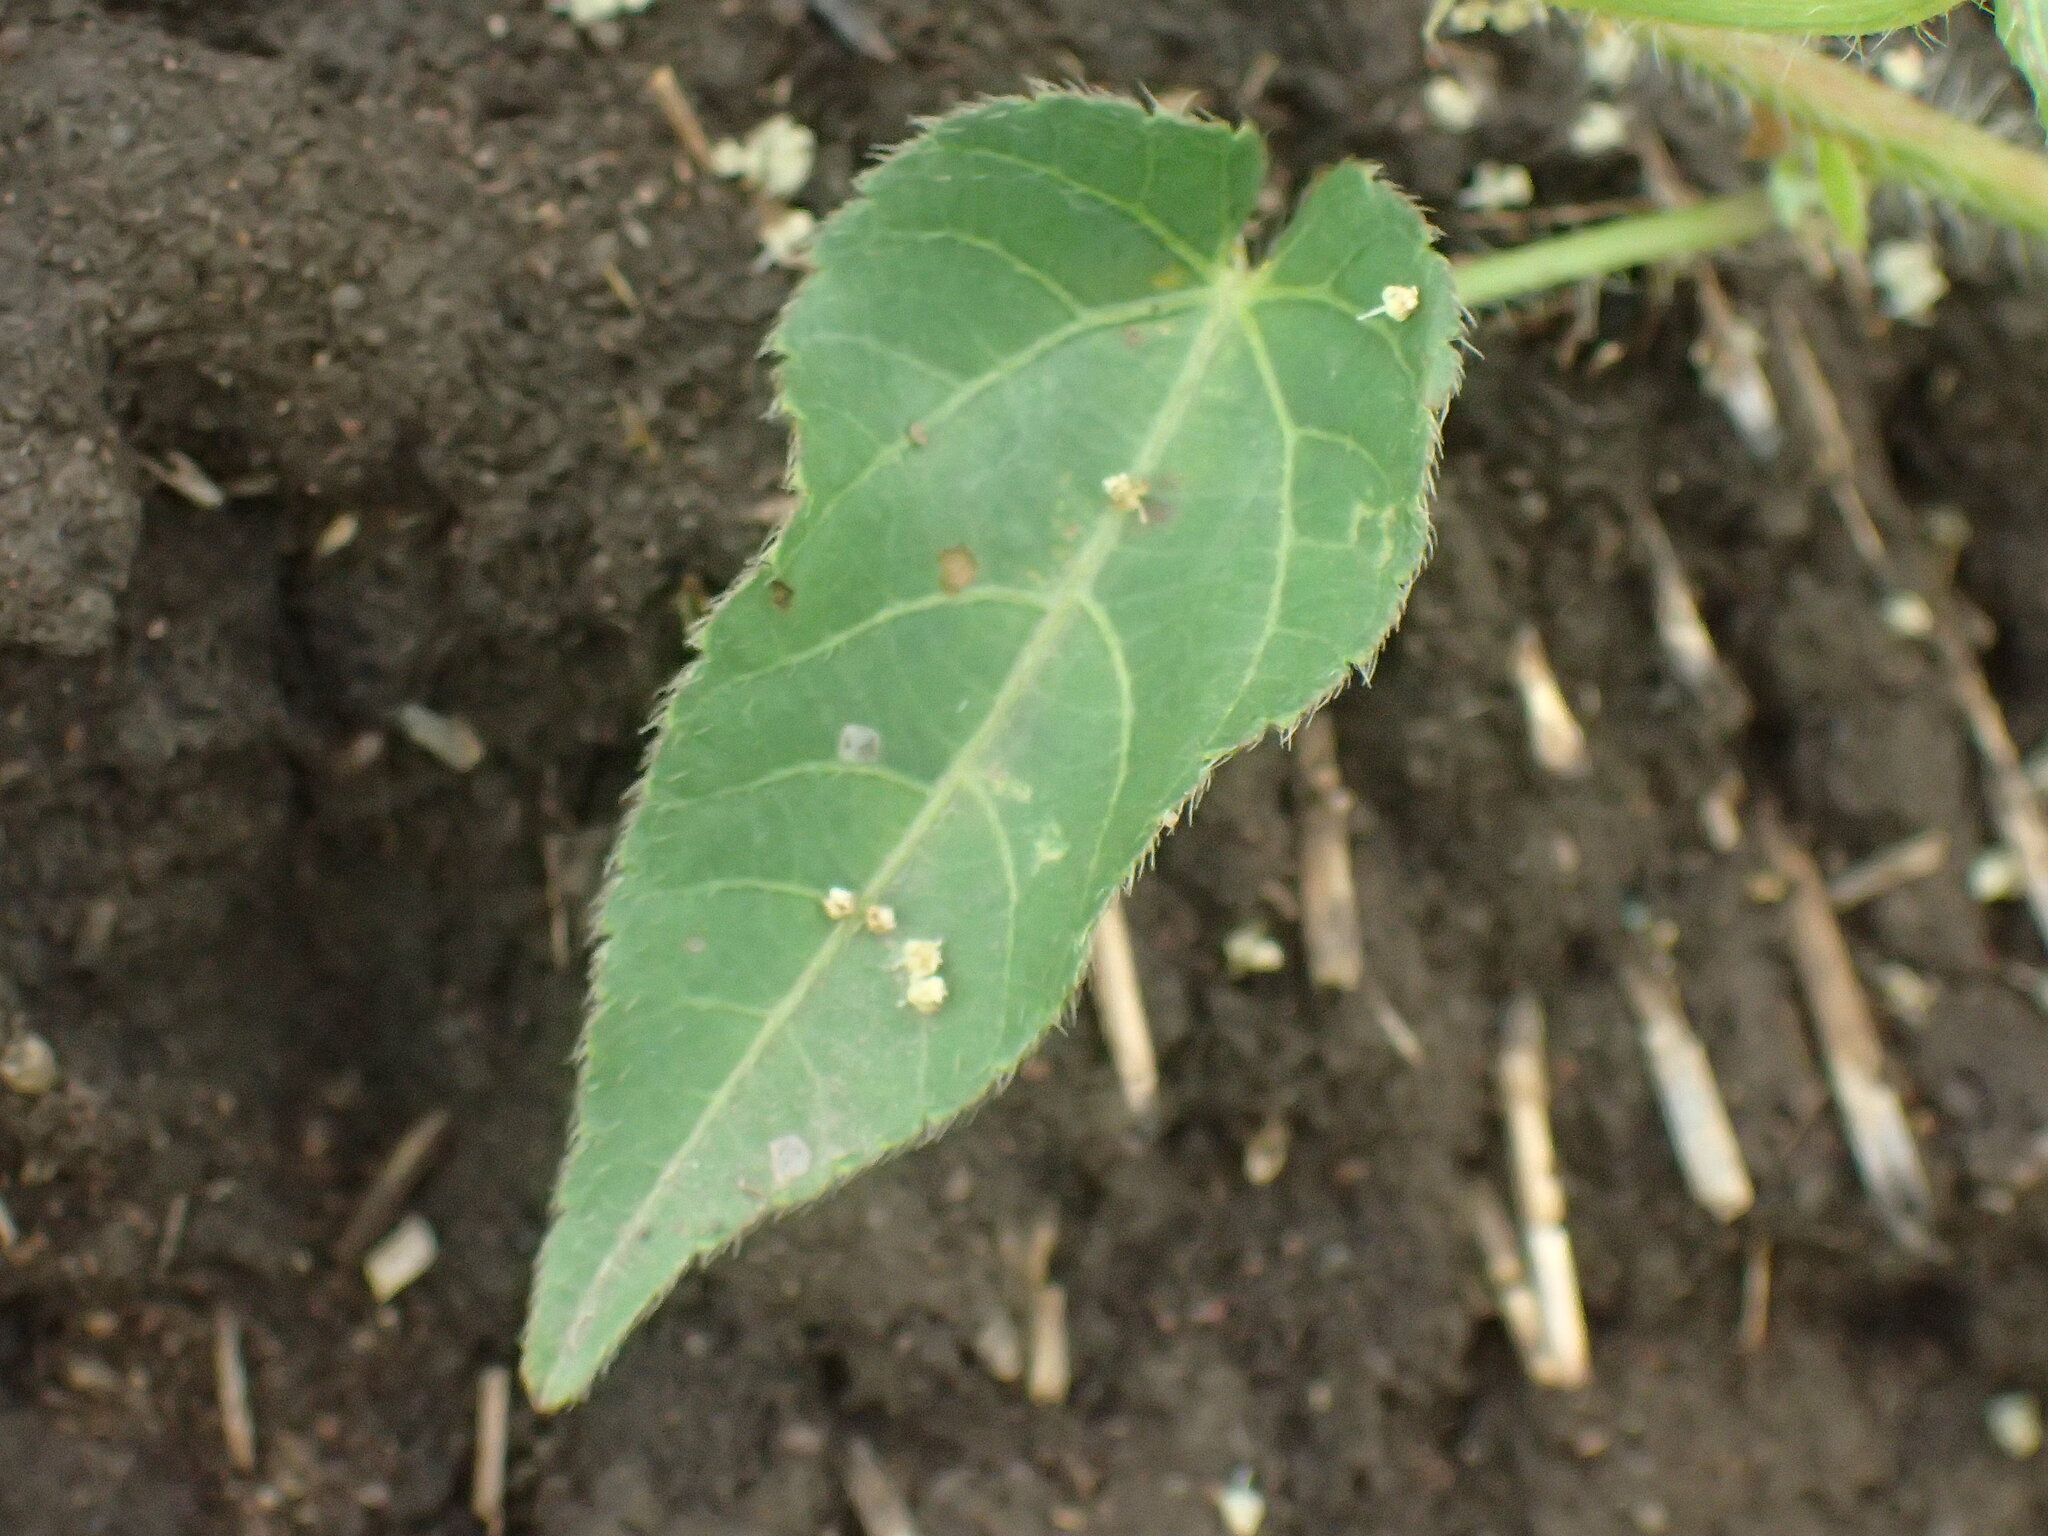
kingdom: Plantae
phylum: Tracheophyta
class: Magnoliopsida
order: Malpighiales
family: Euphorbiaceae
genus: Acalypha
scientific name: Acalypha petiolaris
